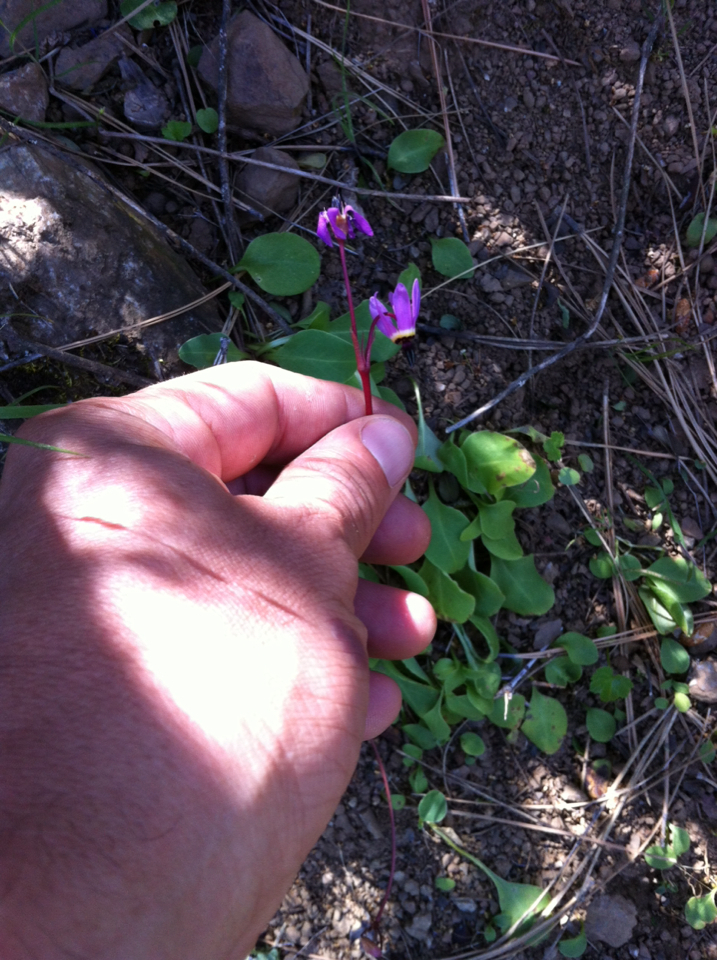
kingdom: Plantae
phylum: Tracheophyta
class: Magnoliopsida
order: Ericales
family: Primulaceae
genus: Dodecatheon
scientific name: Dodecatheon hendersonii
